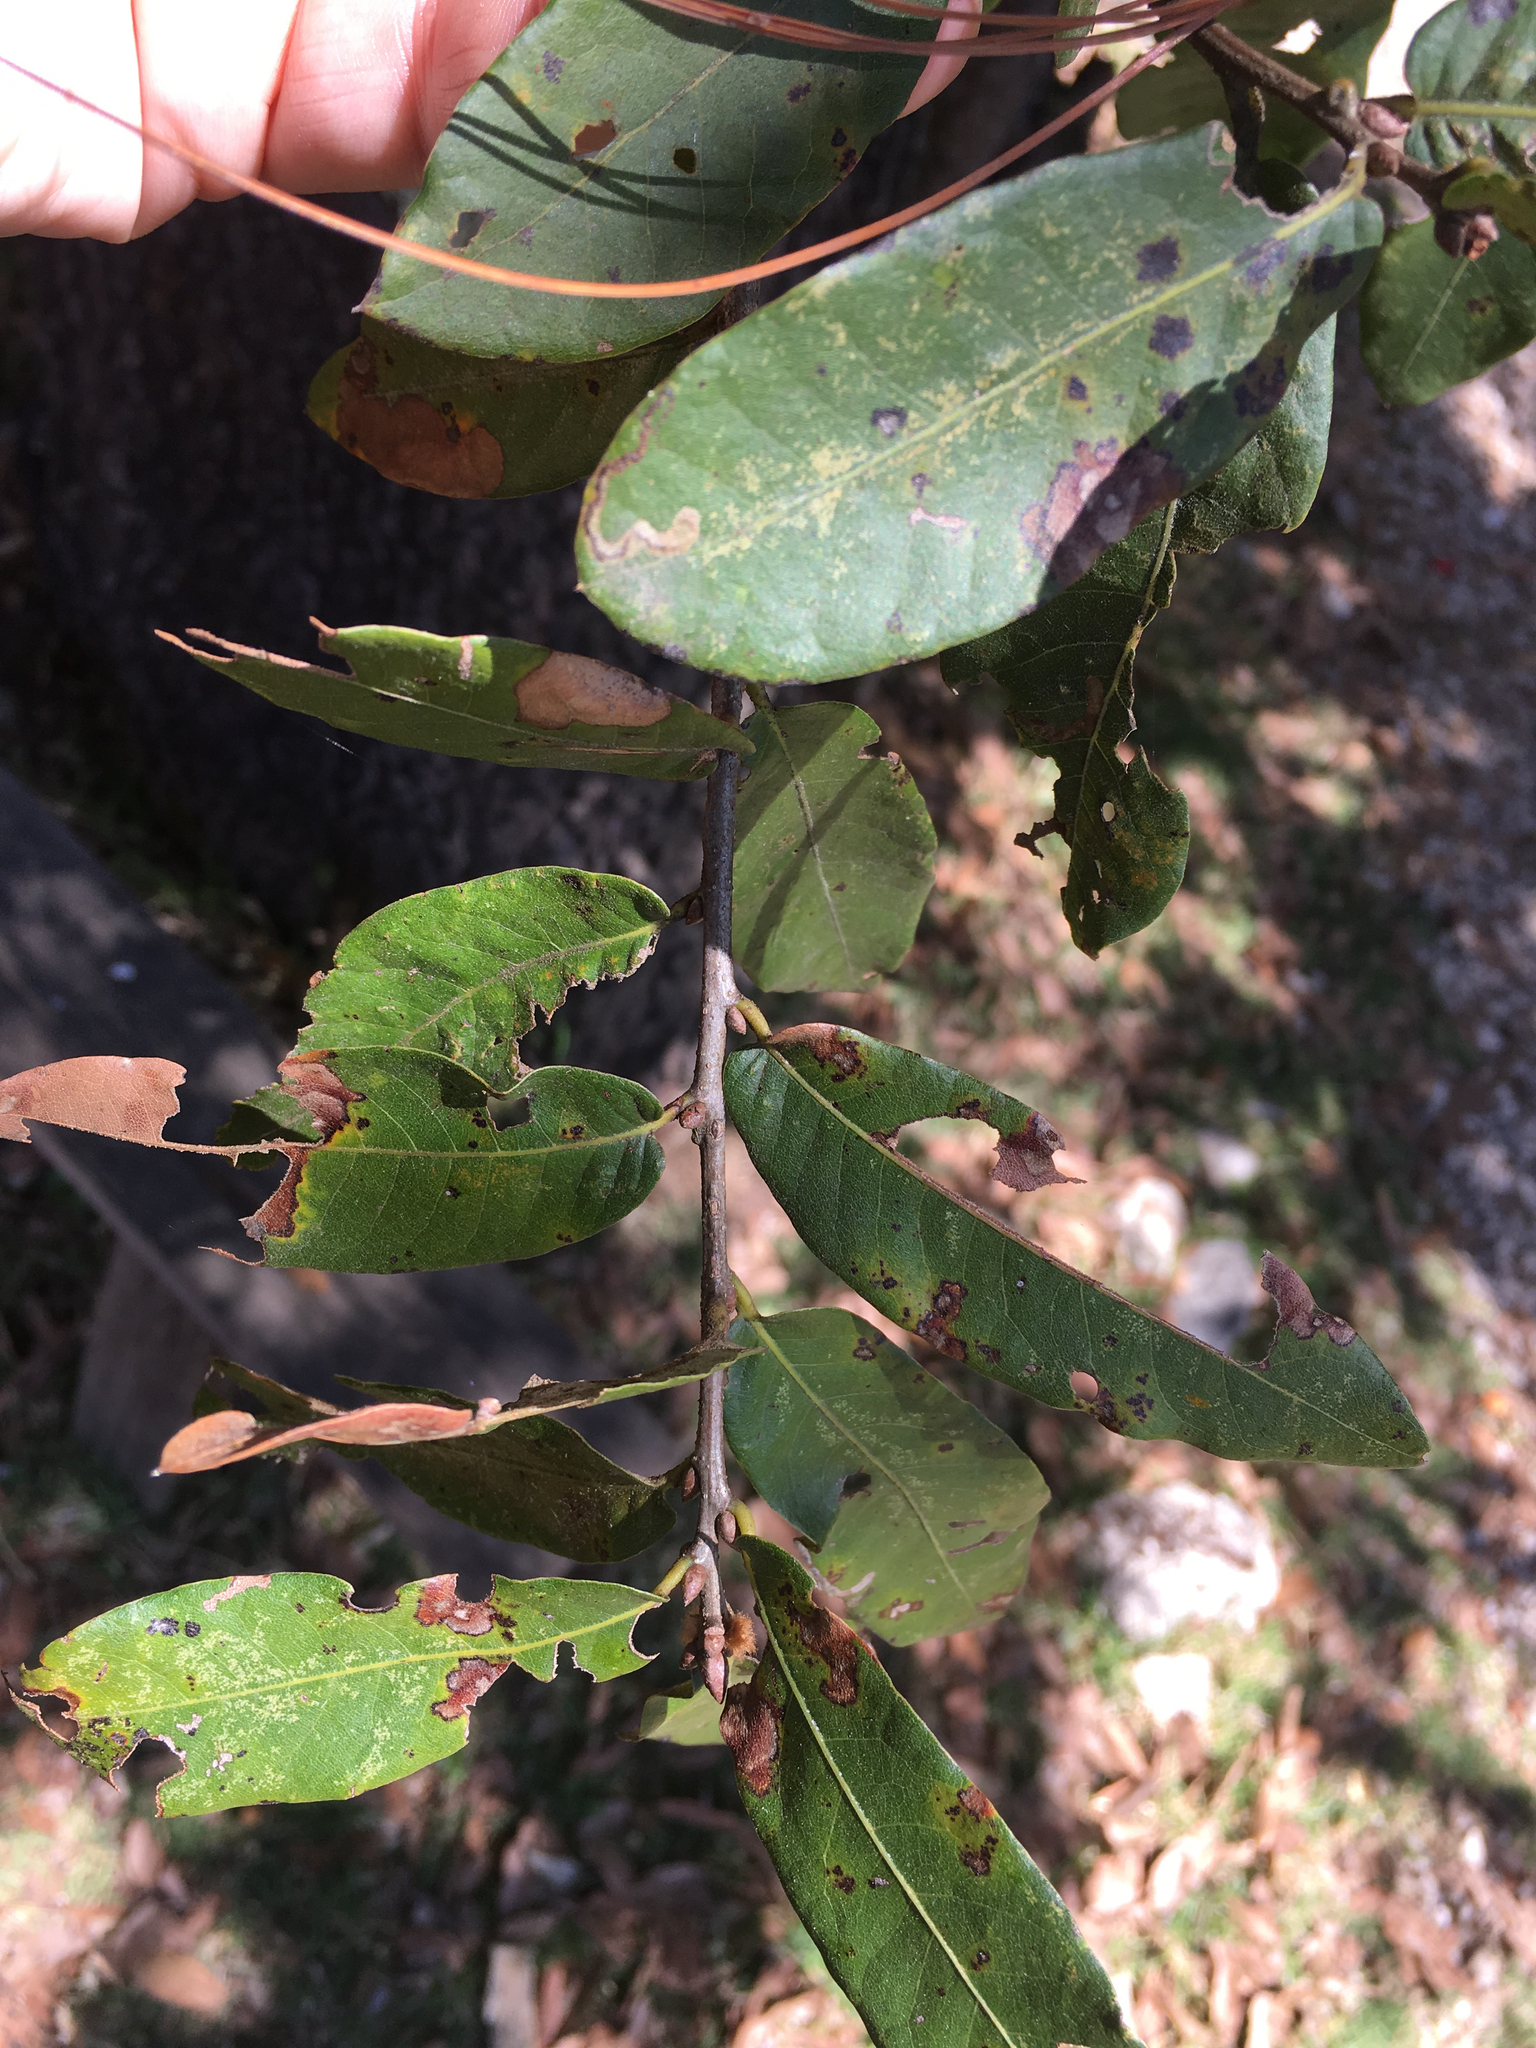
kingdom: Plantae
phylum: Tracheophyta
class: Magnoliopsida
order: Fagales
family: Fagaceae
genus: Quercus
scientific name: Quercus crispipilis
